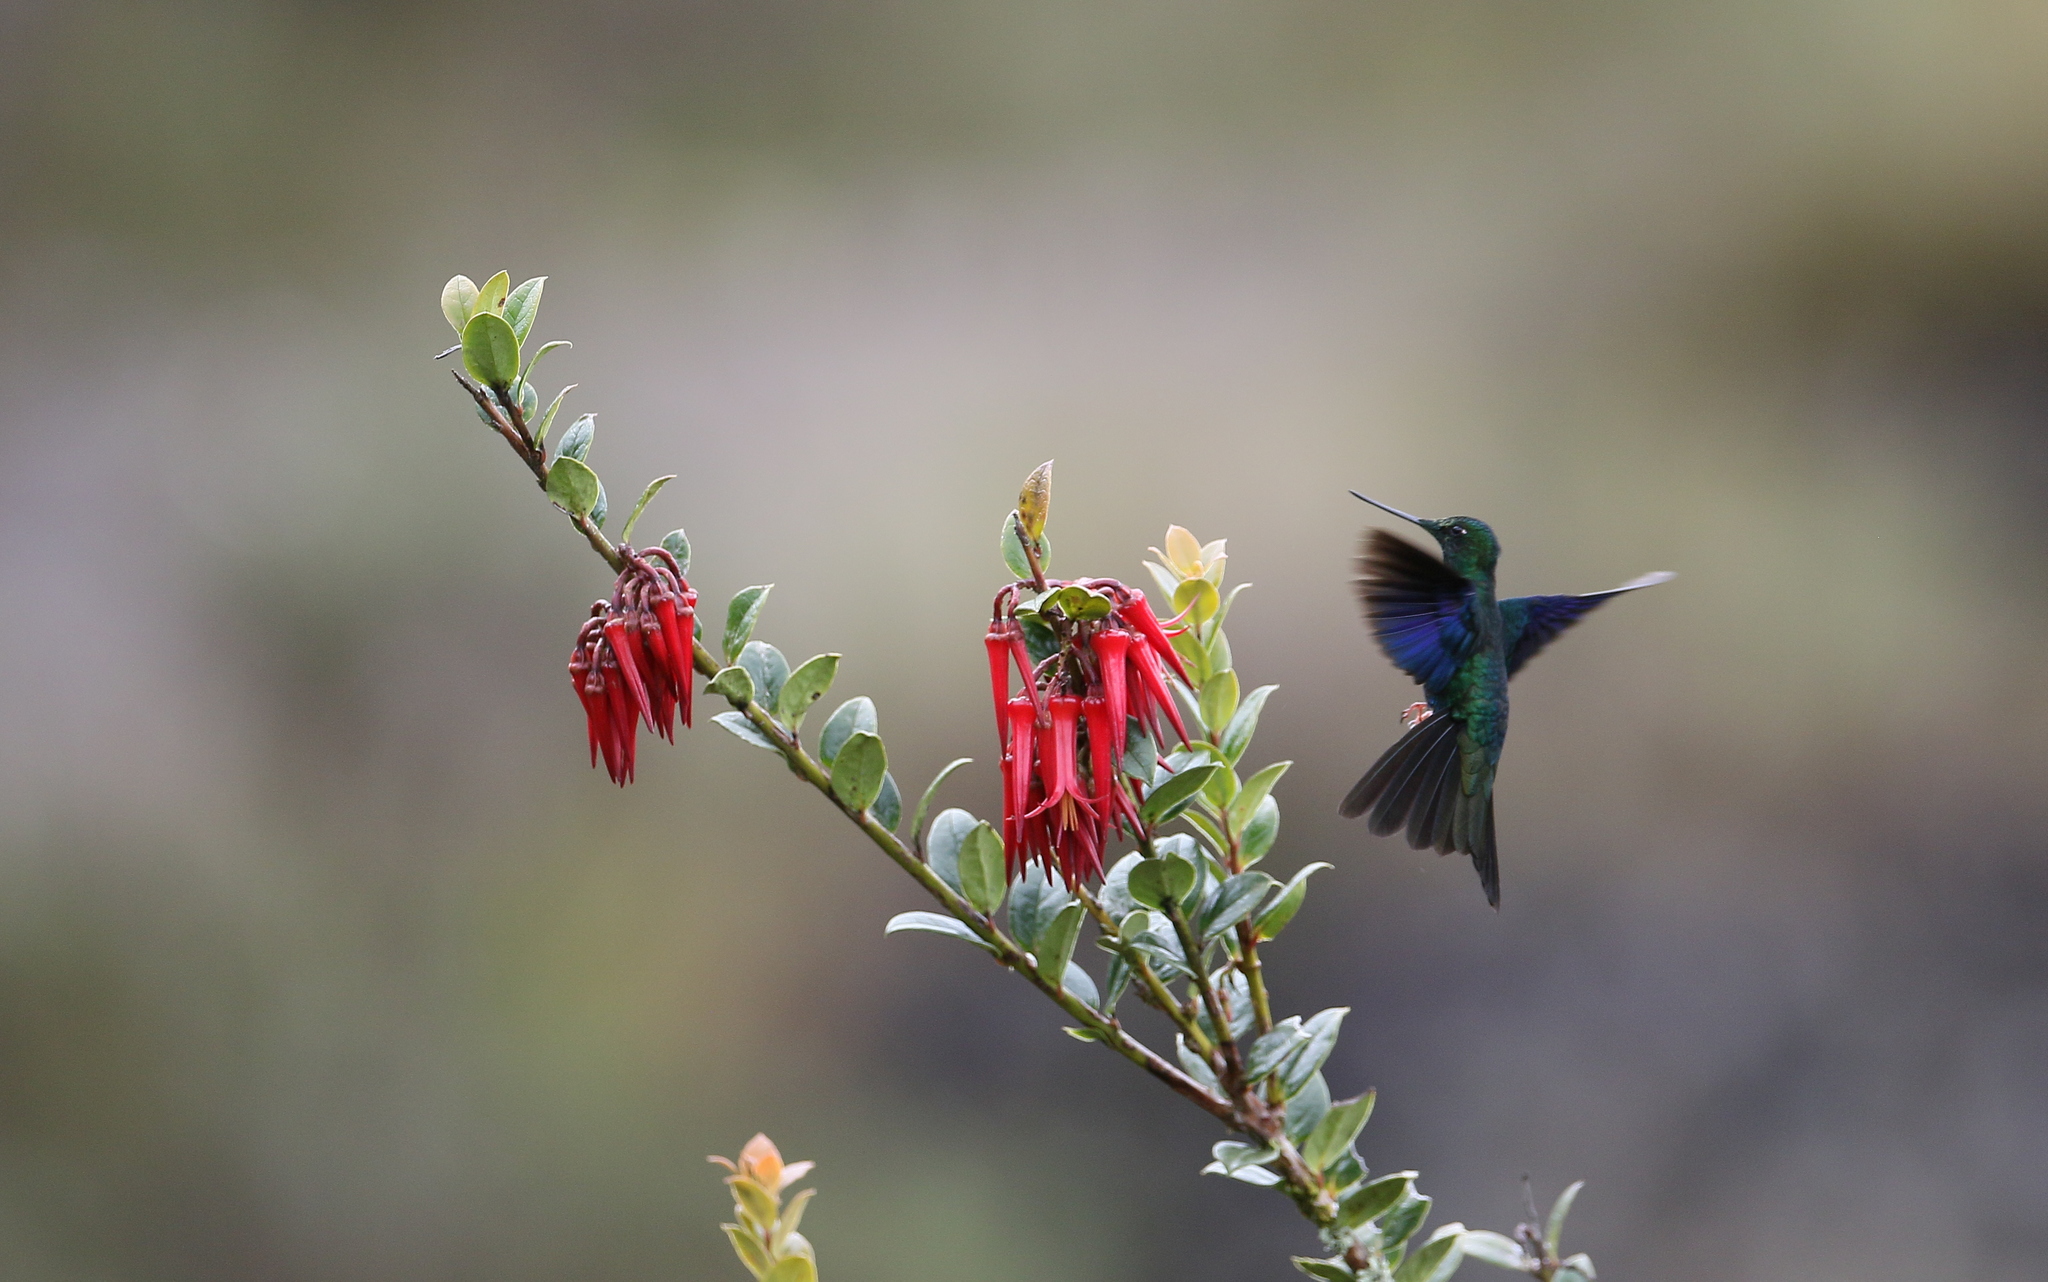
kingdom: Animalia
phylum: Chordata
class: Aves
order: Apodiformes
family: Trochilidae
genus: Pterophanes
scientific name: Pterophanes cyanopterus
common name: Great sapphirewing
